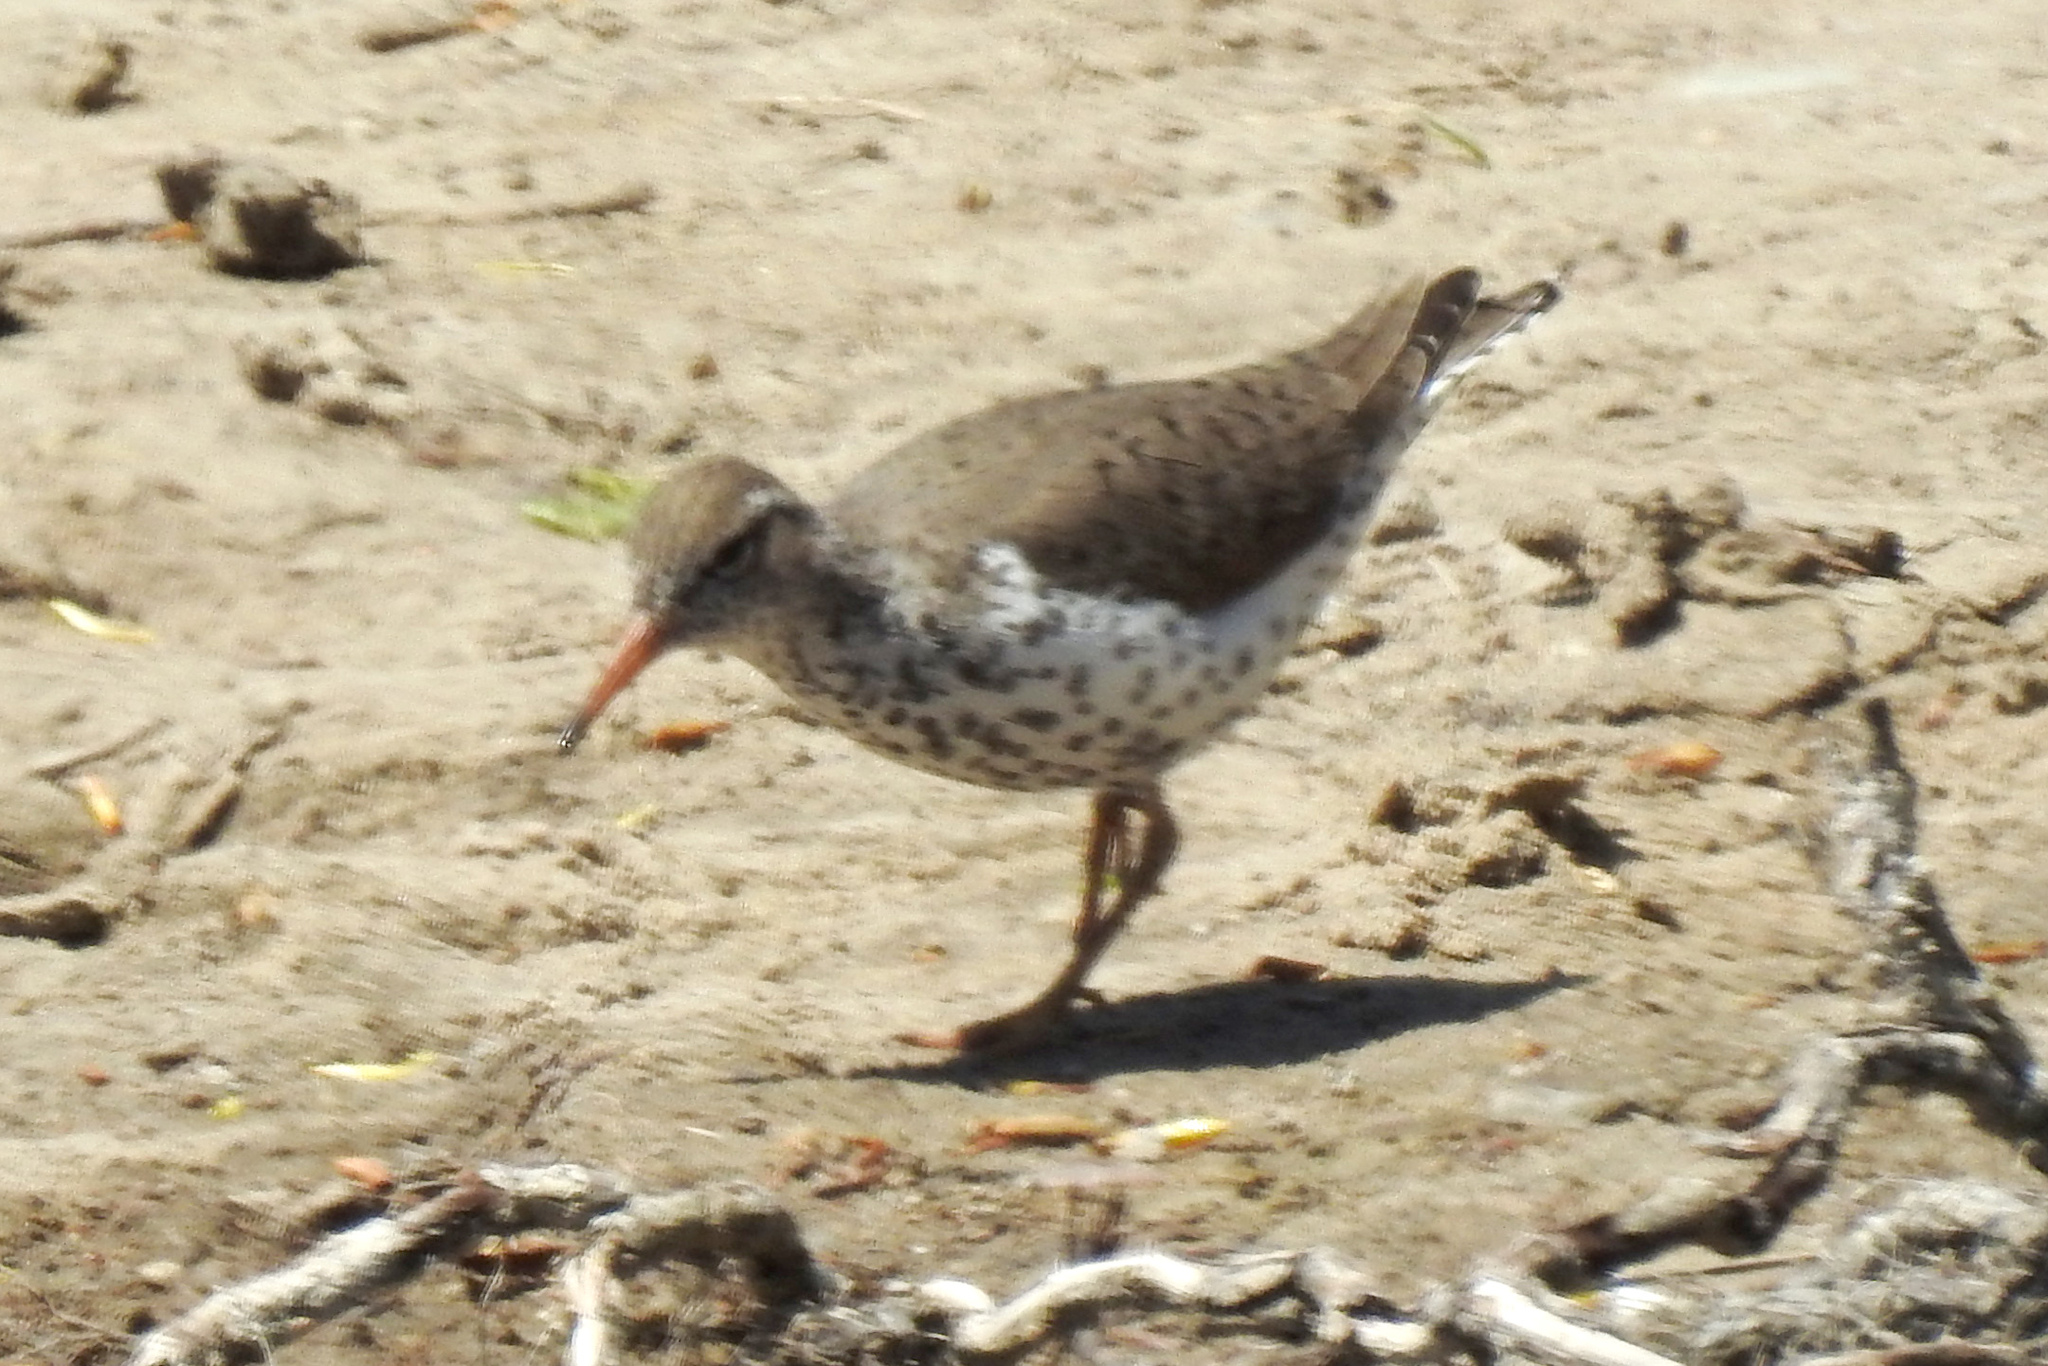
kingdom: Animalia
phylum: Chordata
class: Aves
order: Charadriiformes
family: Scolopacidae
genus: Actitis
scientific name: Actitis macularius
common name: Spotted sandpiper
